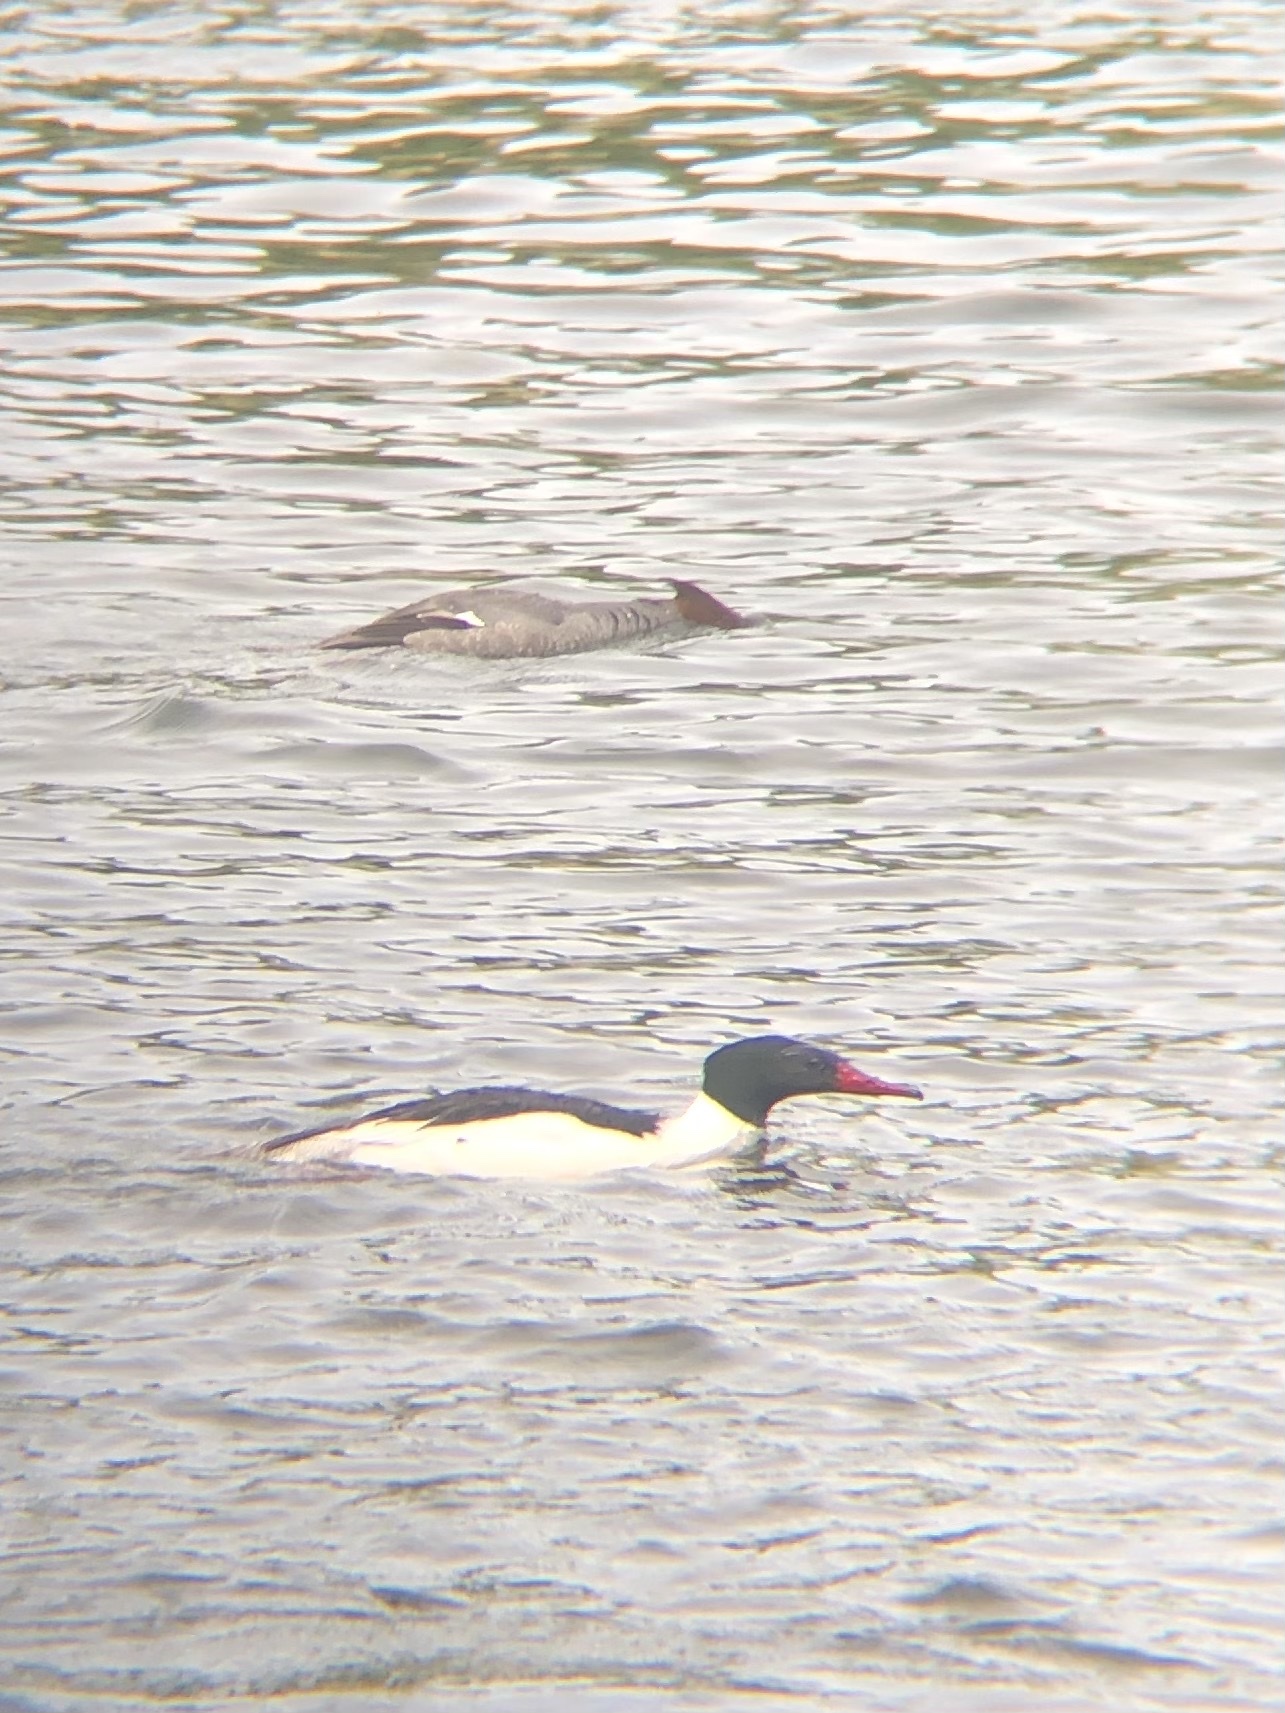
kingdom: Animalia
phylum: Chordata
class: Aves
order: Anseriformes
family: Anatidae
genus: Mergus
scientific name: Mergus merganser
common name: Common merganser
